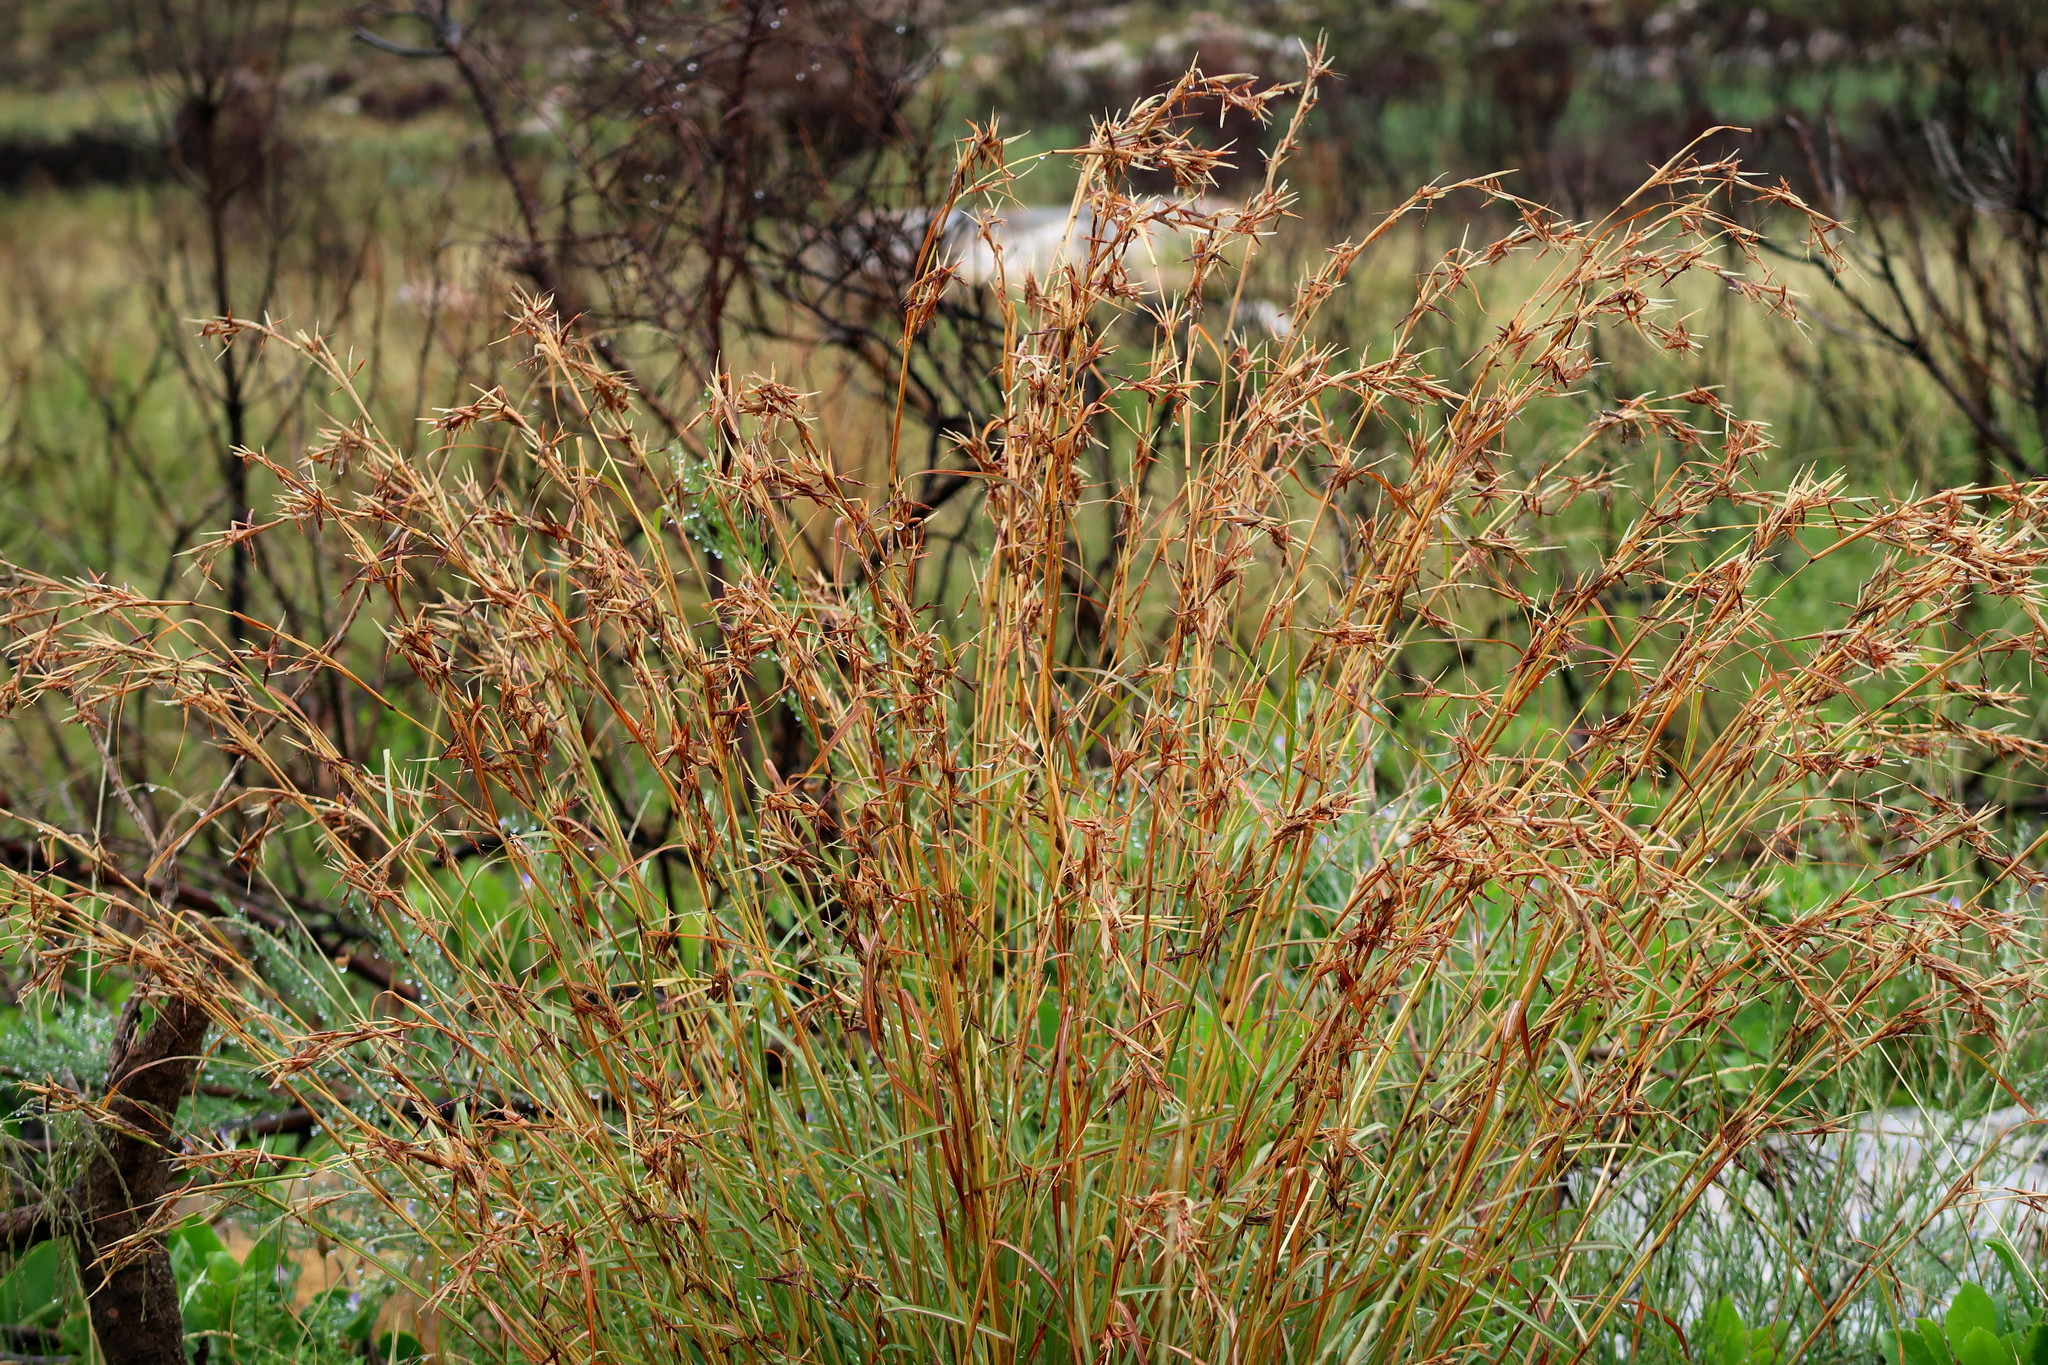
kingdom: Plantae
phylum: Tracheophyta
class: Liliopsida
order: Poales
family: Poaceae
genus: Themeda
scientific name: Themeda triandra
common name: Kangaroo grass
